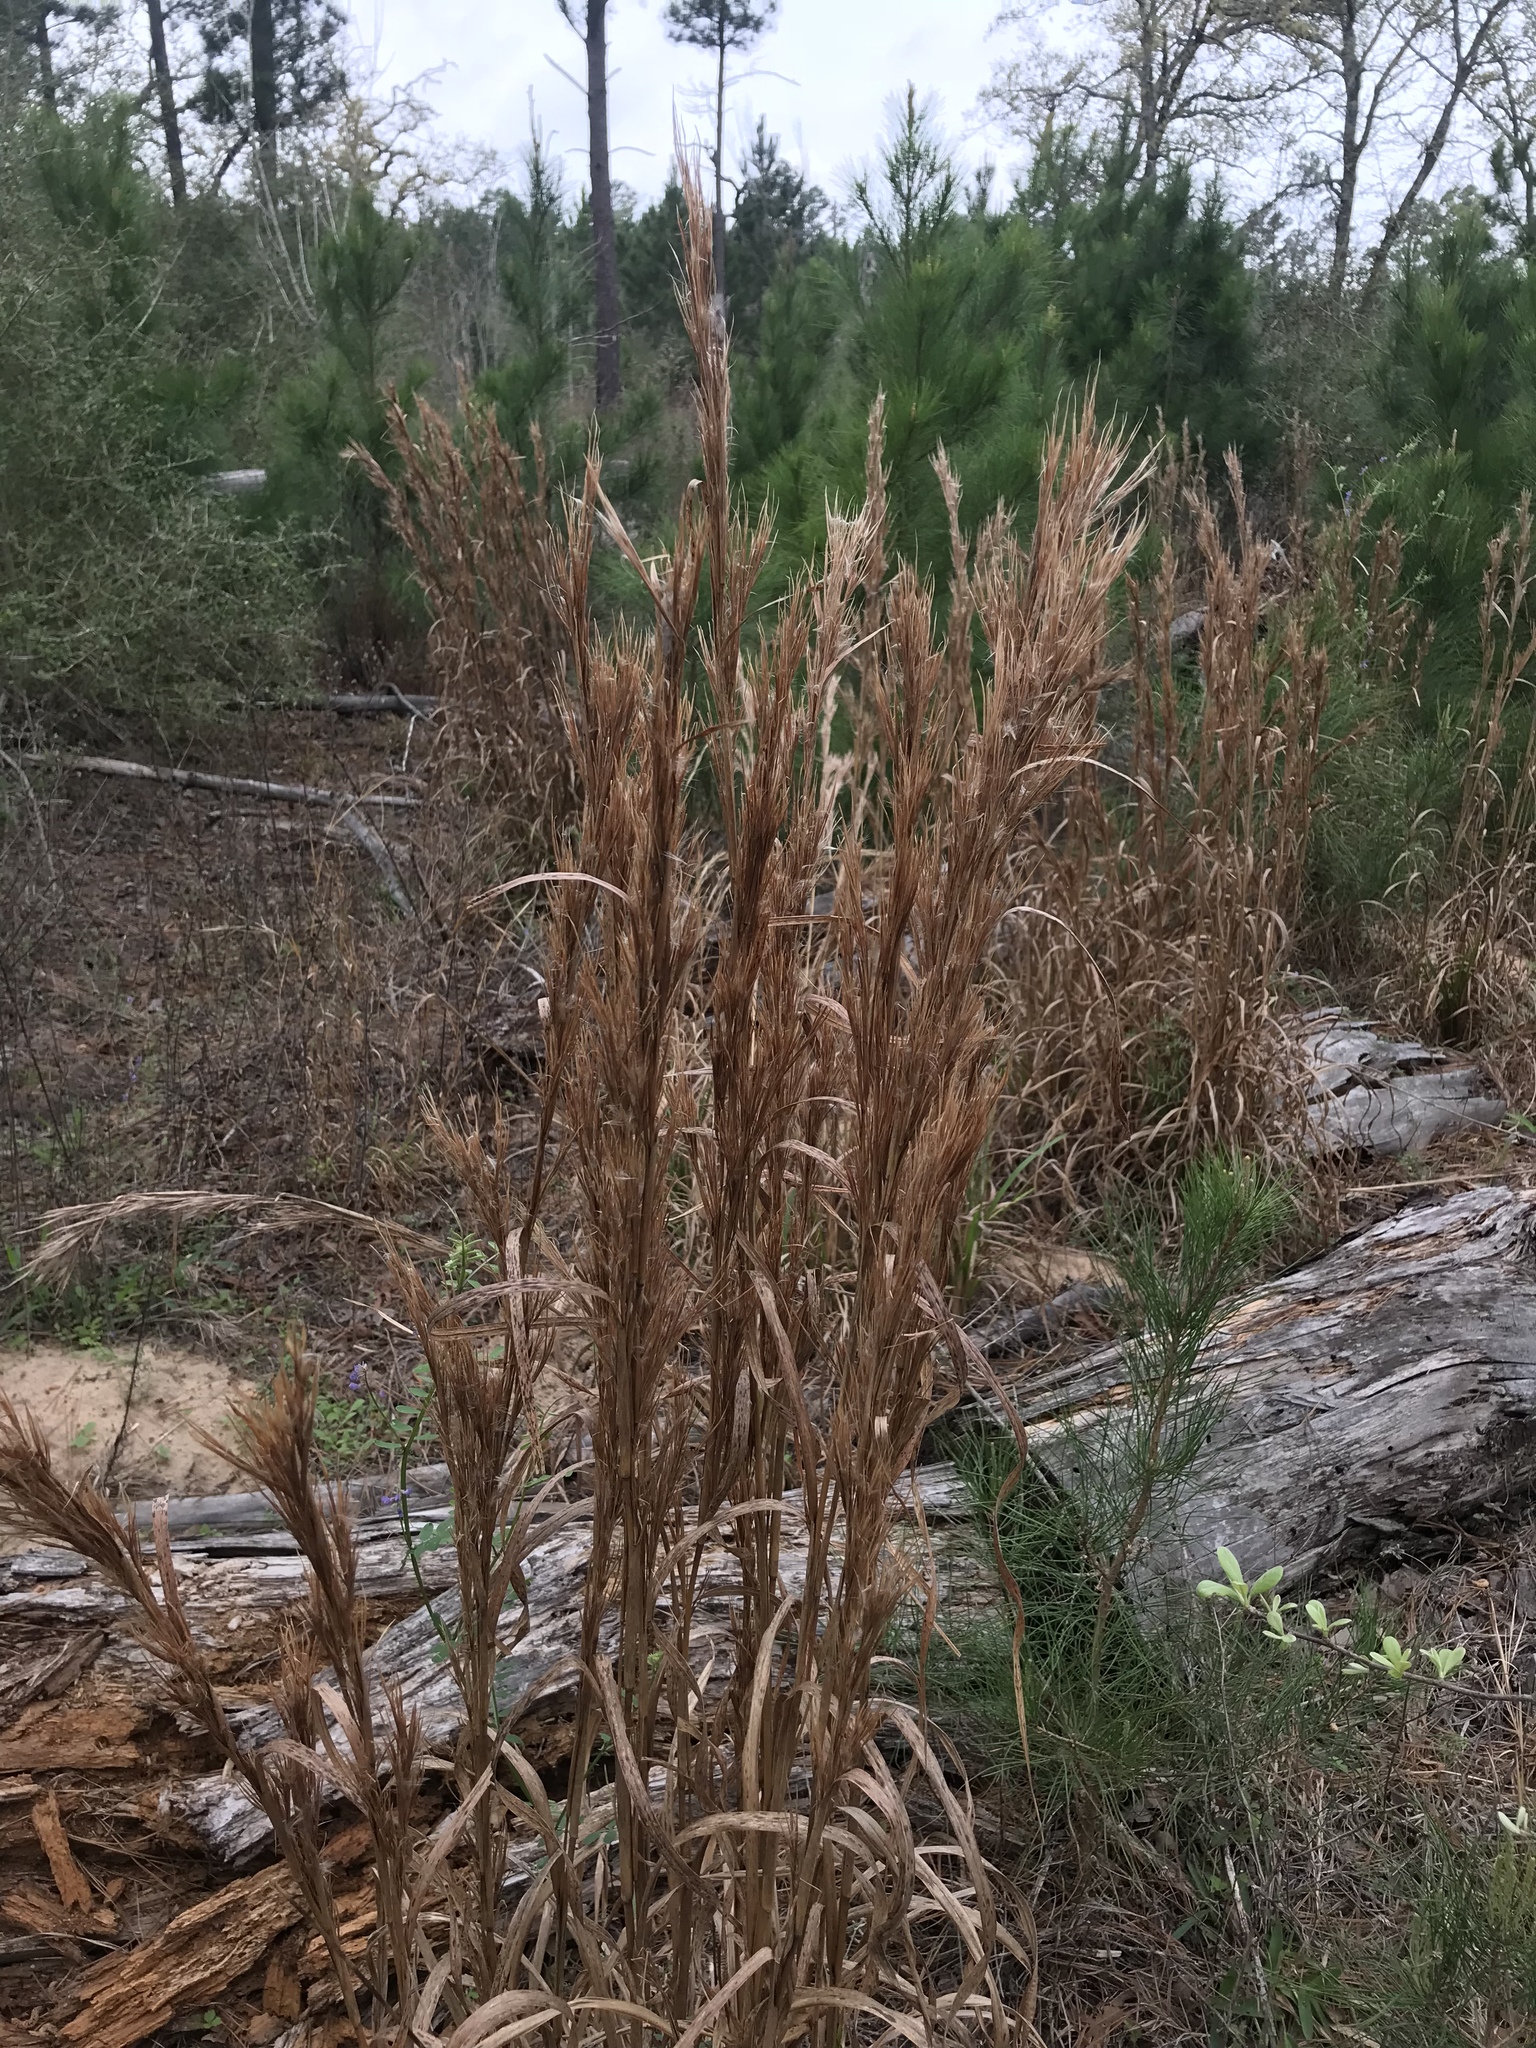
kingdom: Plantae
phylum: Tracheophyta
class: Liliopsida
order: Poales
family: Poaceae
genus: Andropogon
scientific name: Andropogon tenuispatheus
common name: Bushy bluestem
